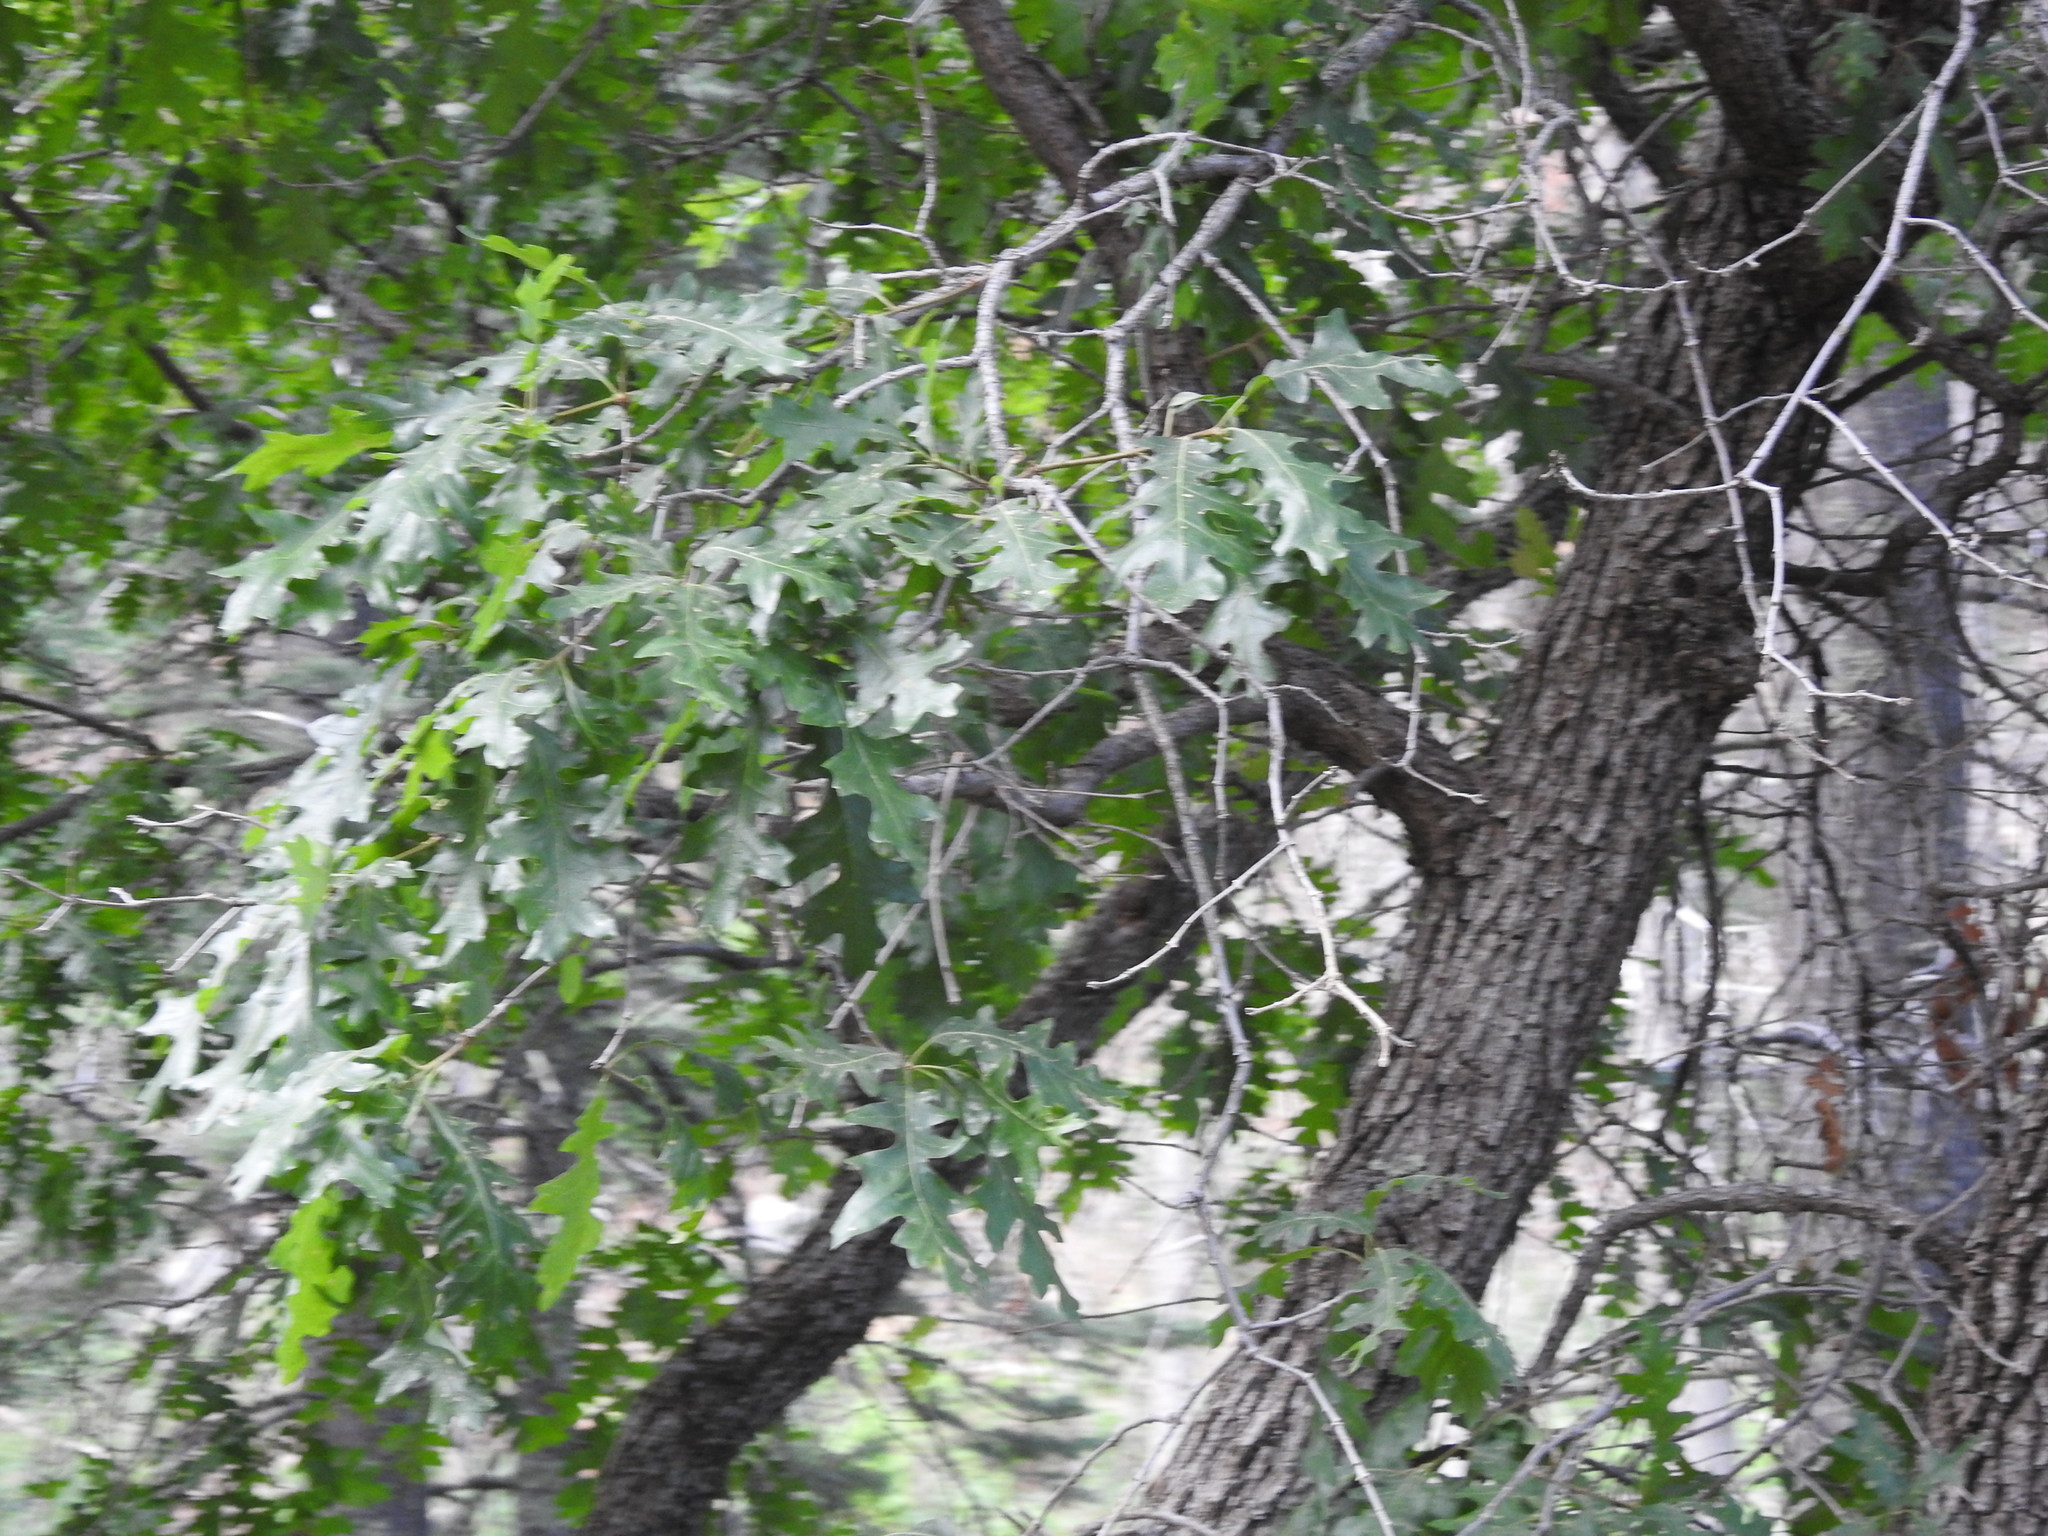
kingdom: Plantae
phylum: Tracheophyta
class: Magnoliopsida
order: Fagales
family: Fagaceae
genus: Quercus
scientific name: Quercus gambelii
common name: Gambel oak
